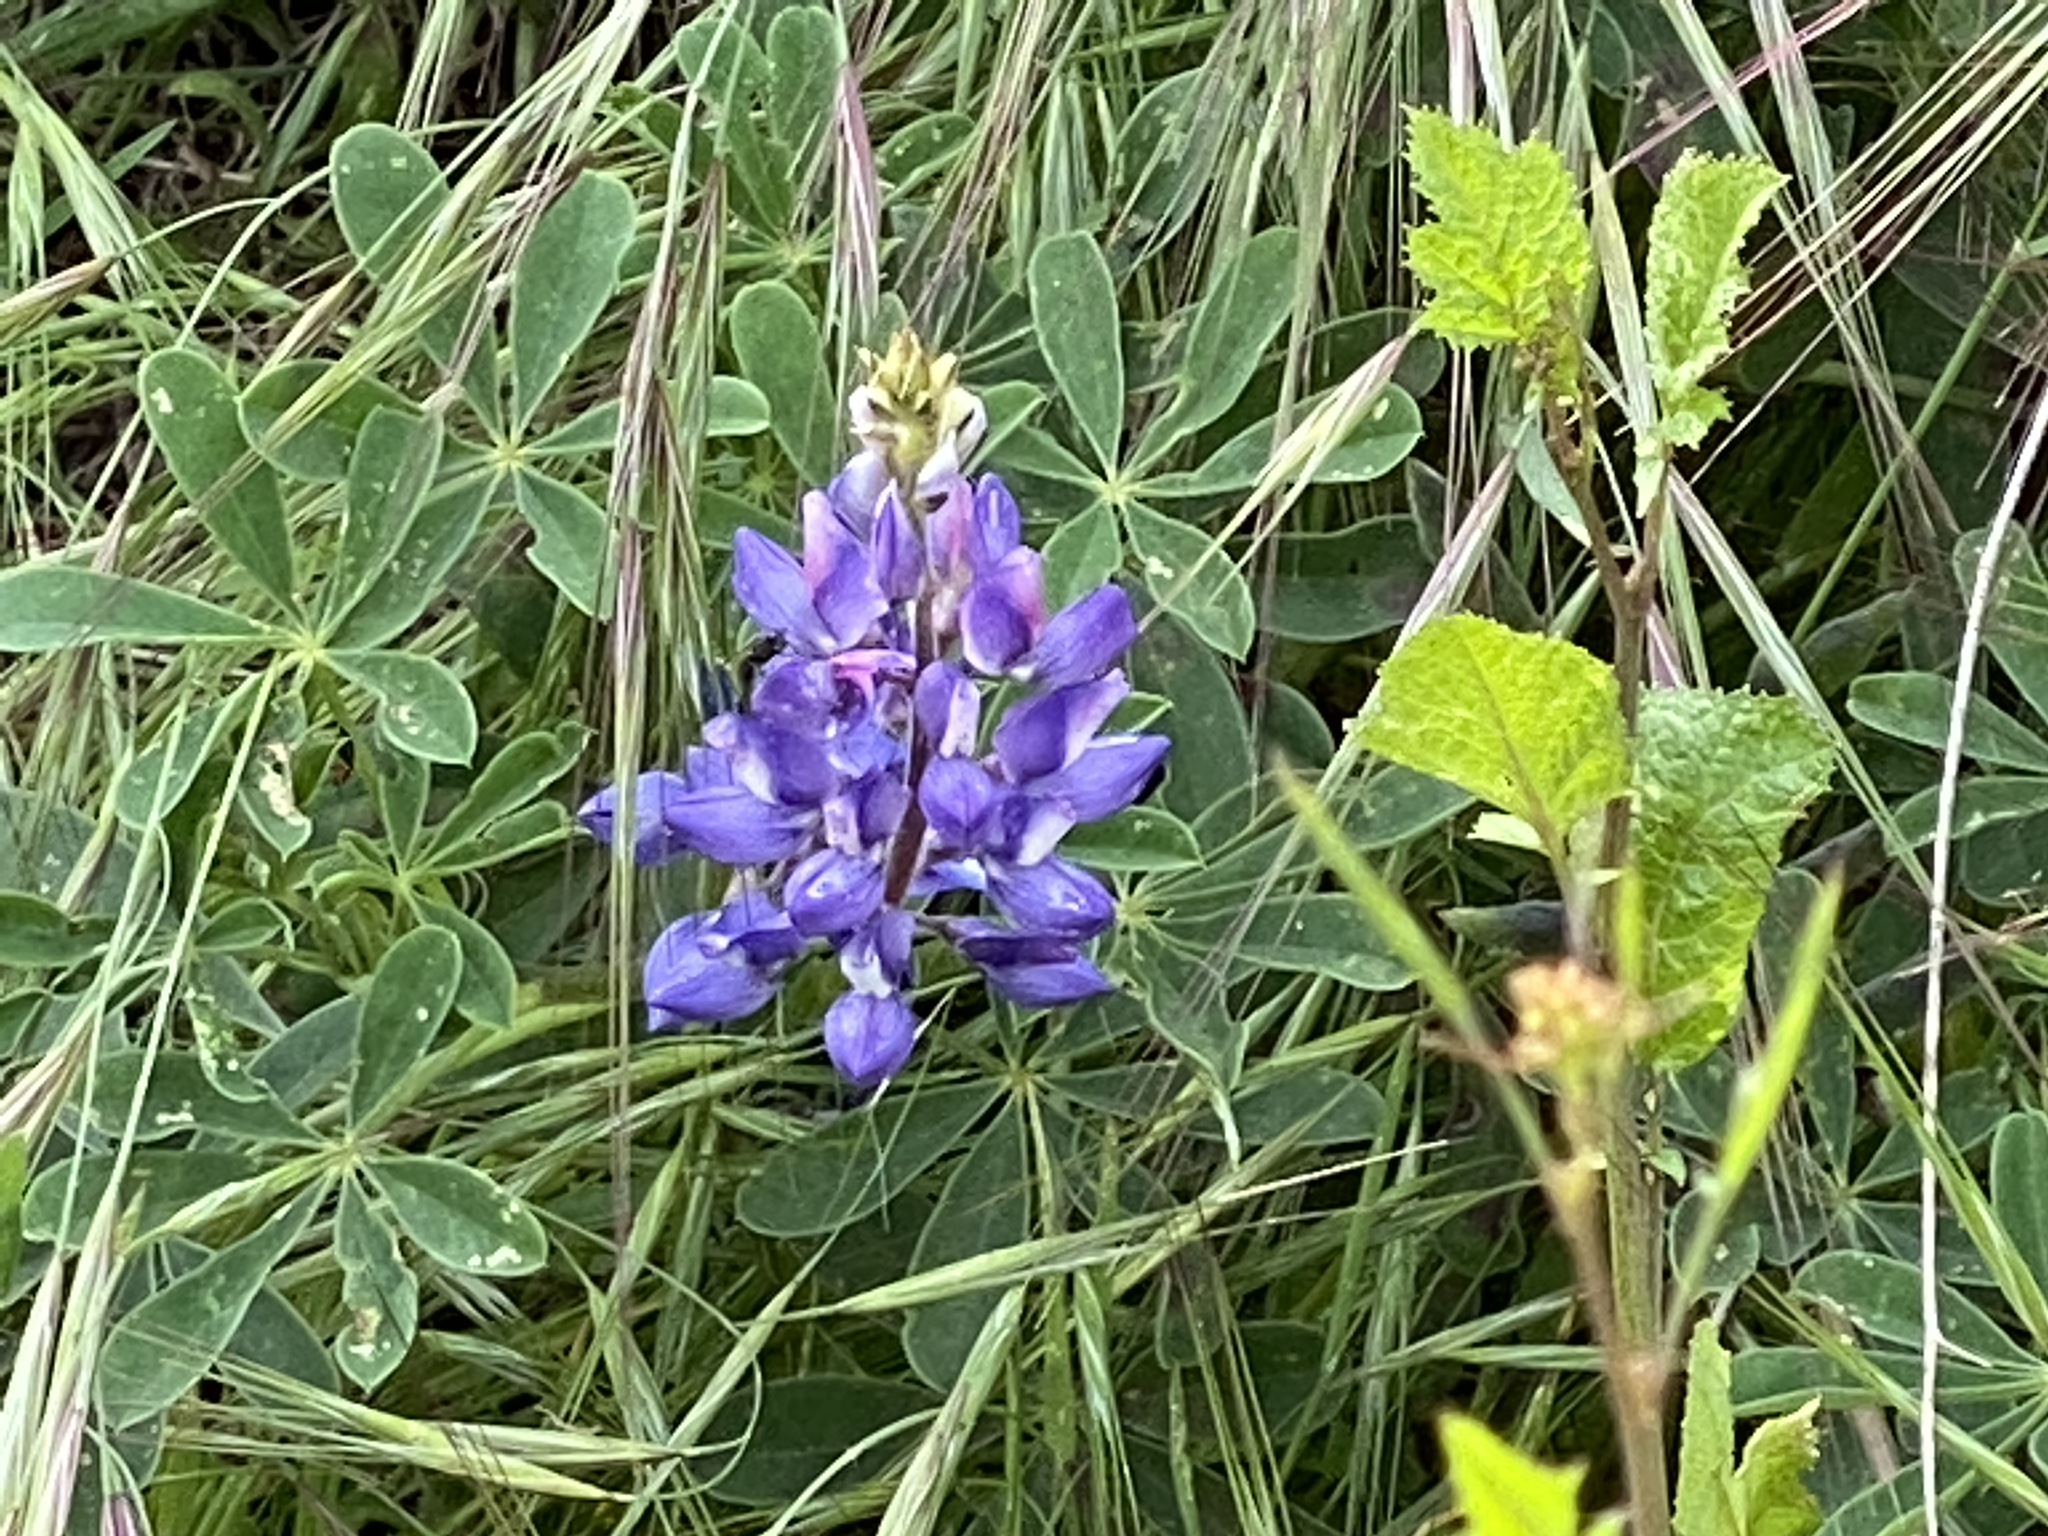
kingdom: Plantae
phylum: Tracheophyta
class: Magnoliopsida
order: Fabales
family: Fabaceae
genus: Lupinus
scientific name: Lupinus succulentus
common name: Arroyo lupine
